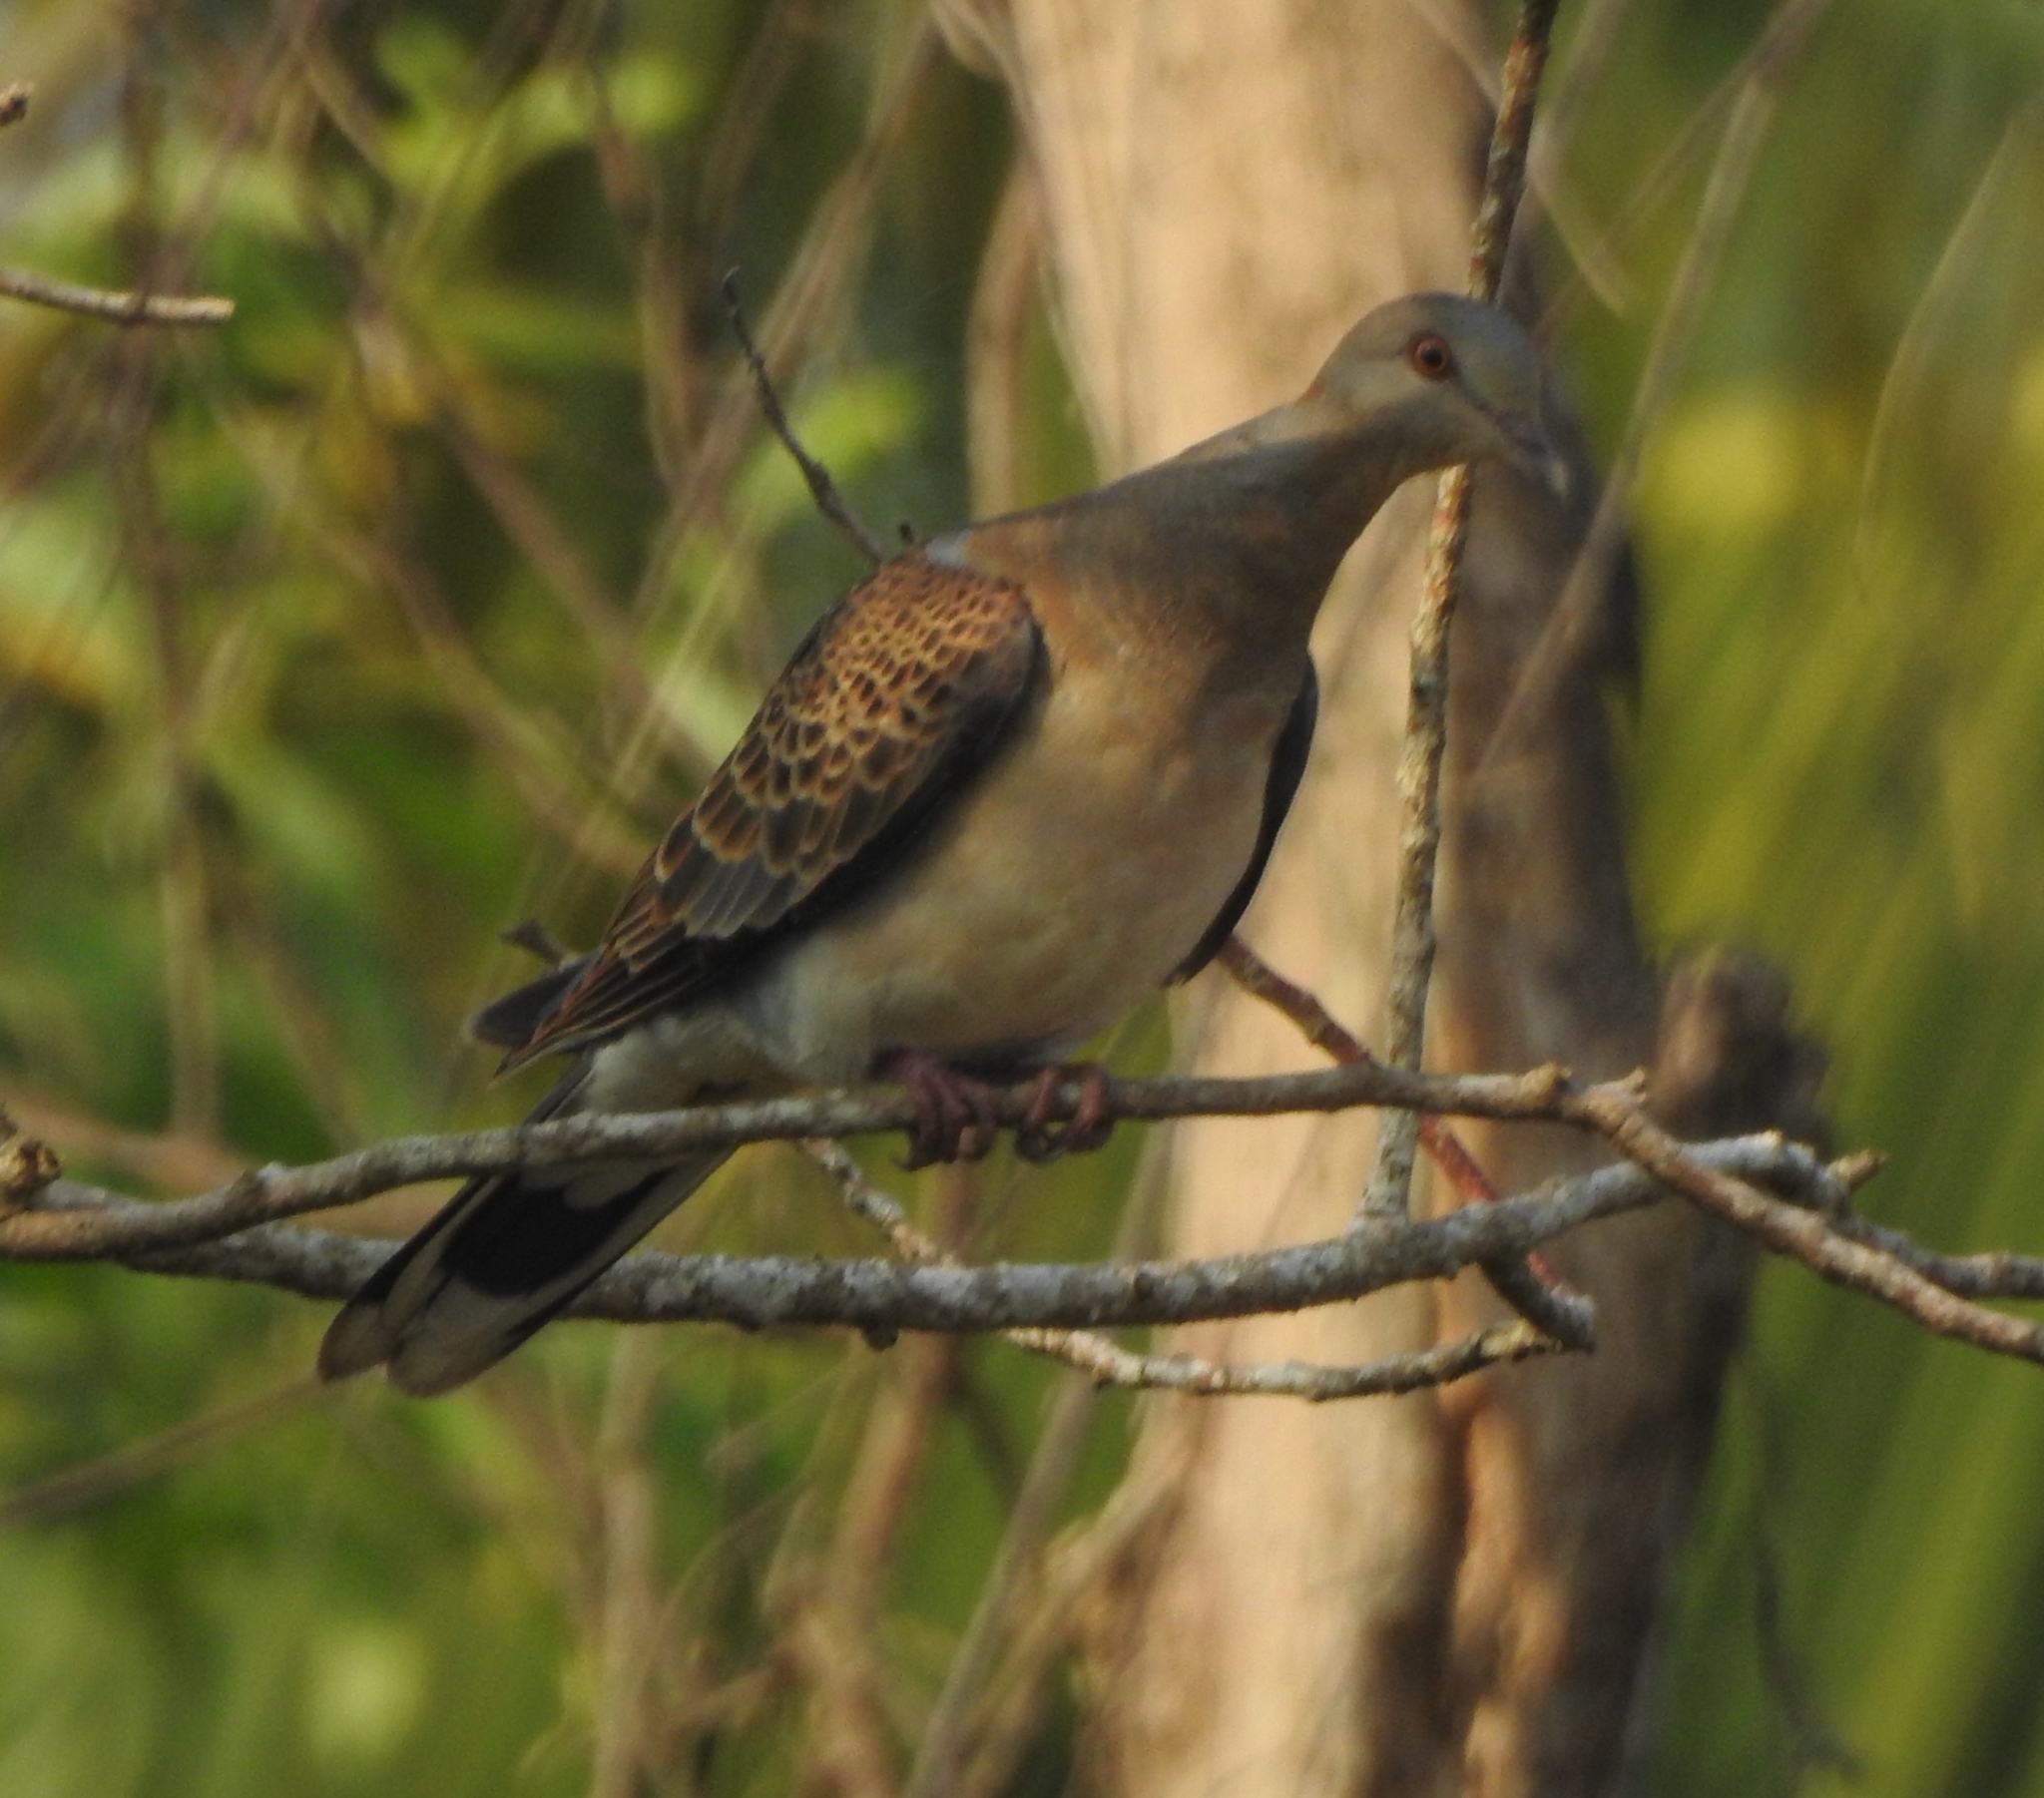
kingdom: Animalia
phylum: Chordata
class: Aves
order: Columbiformes
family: Columbidae
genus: Streptopelia
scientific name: Streptopelia orientalis
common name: Oriental turtle dove
